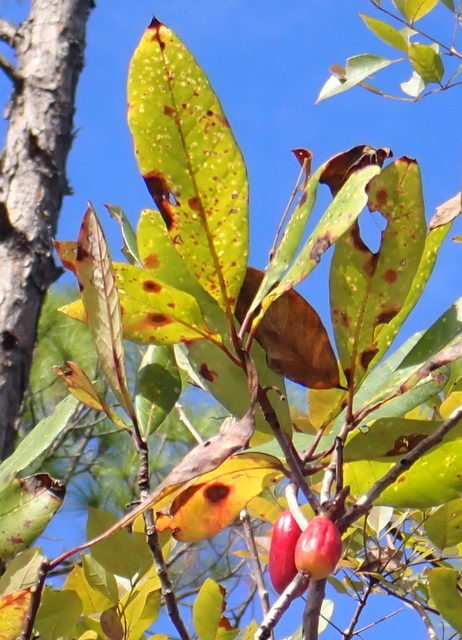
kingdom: Plantae
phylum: Tracheophyta
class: Magnoliopsida
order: Cornales
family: Nyssaceae
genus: Nyssa
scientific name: Nyssa ogeche
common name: Ogeechee tupelo
